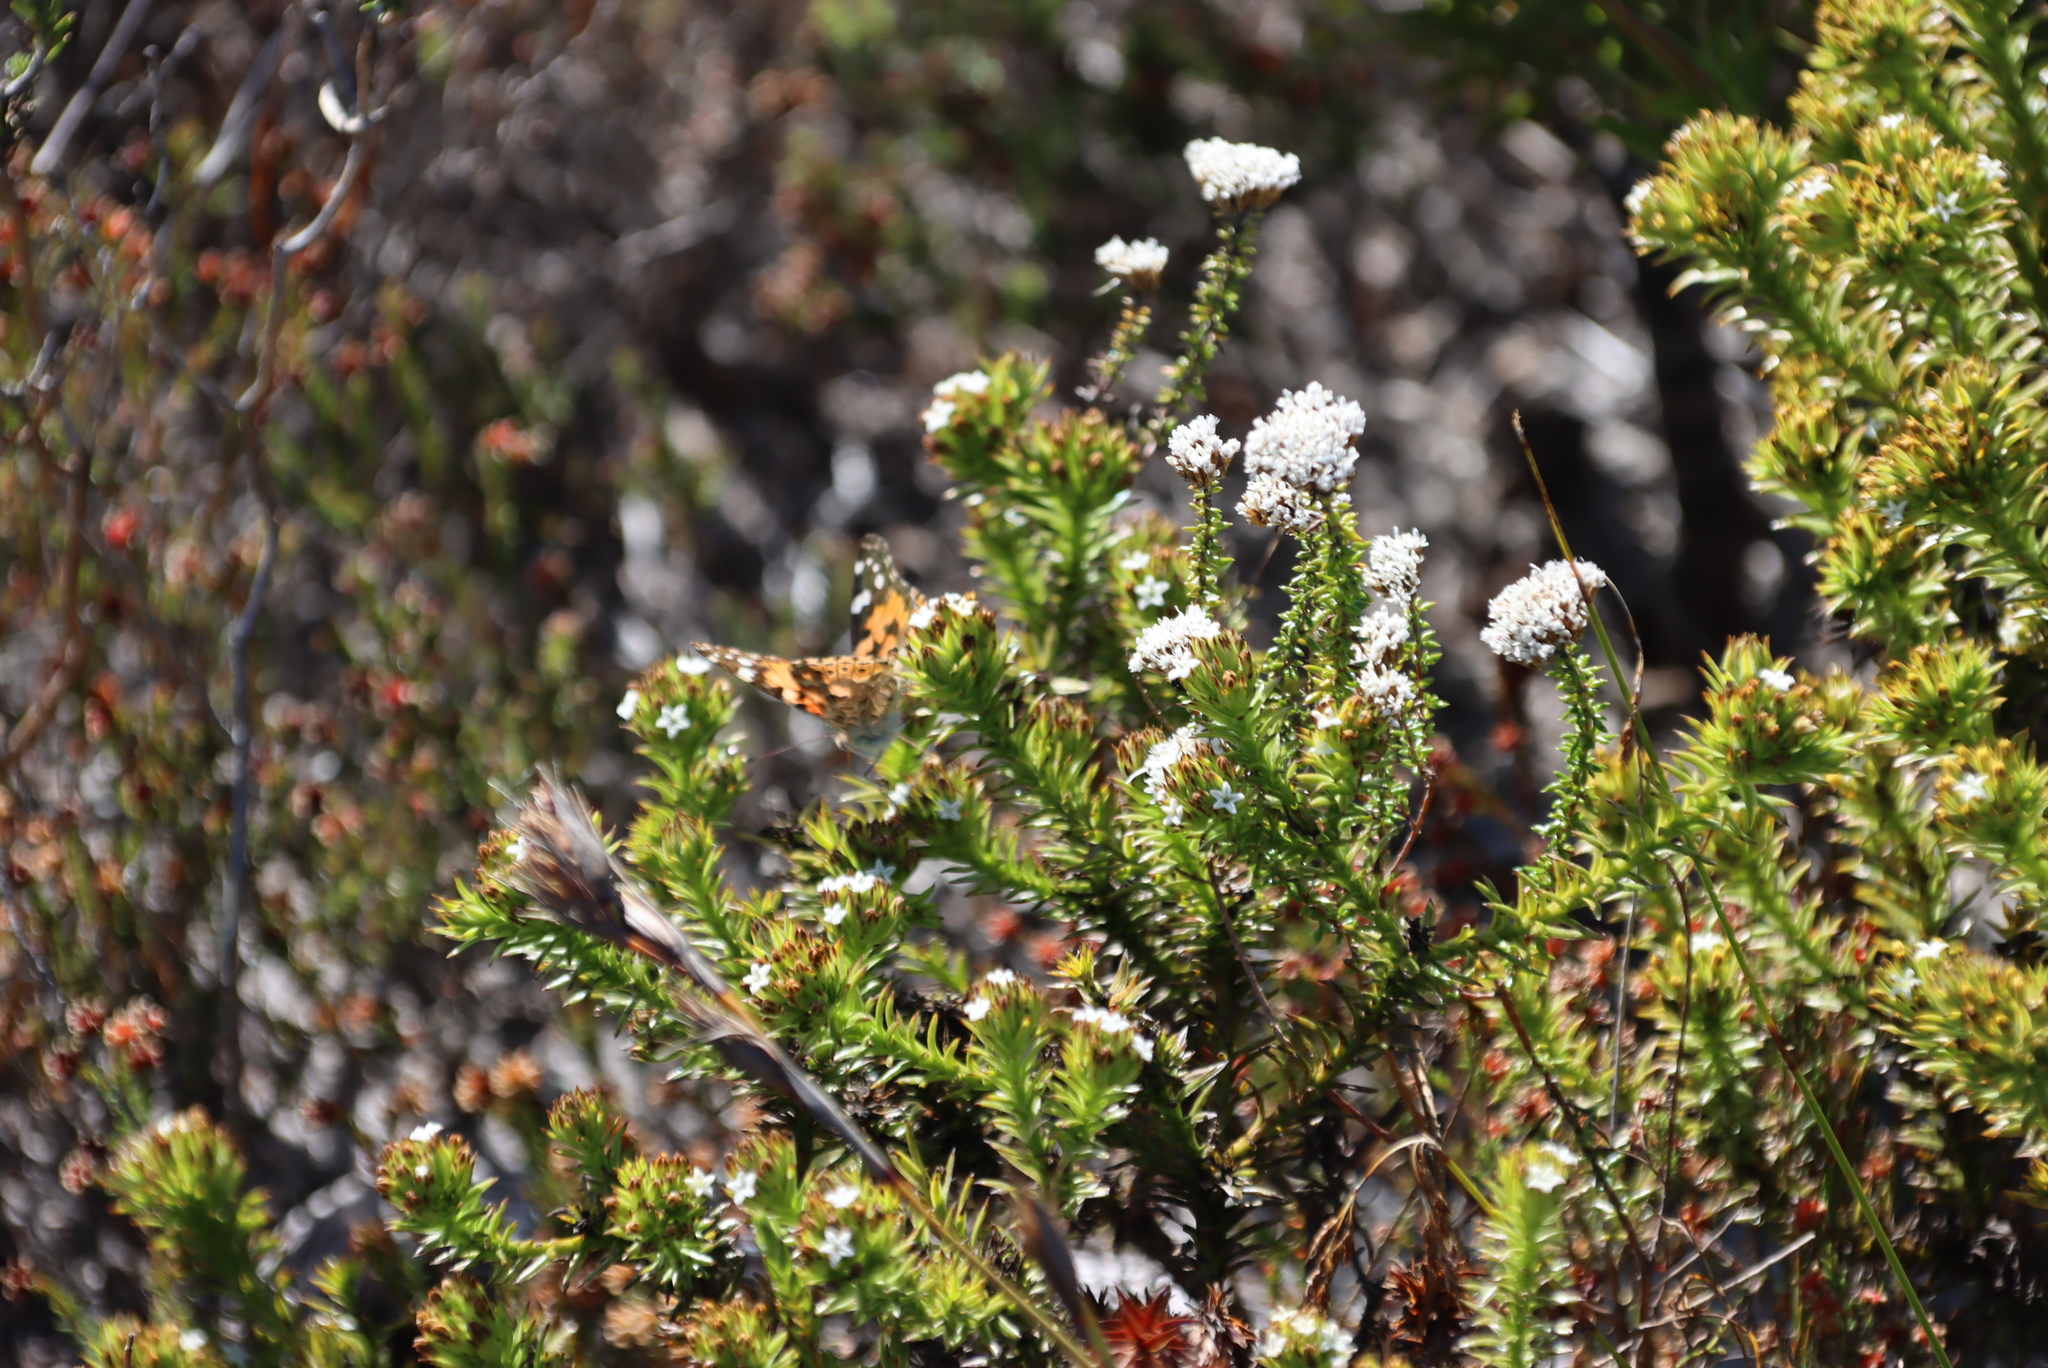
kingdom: Plantae
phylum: Tracheophyta
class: Magnoliopsida
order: Santalales
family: Thesiaceae
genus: Thesium
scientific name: Thesium viridifolium
